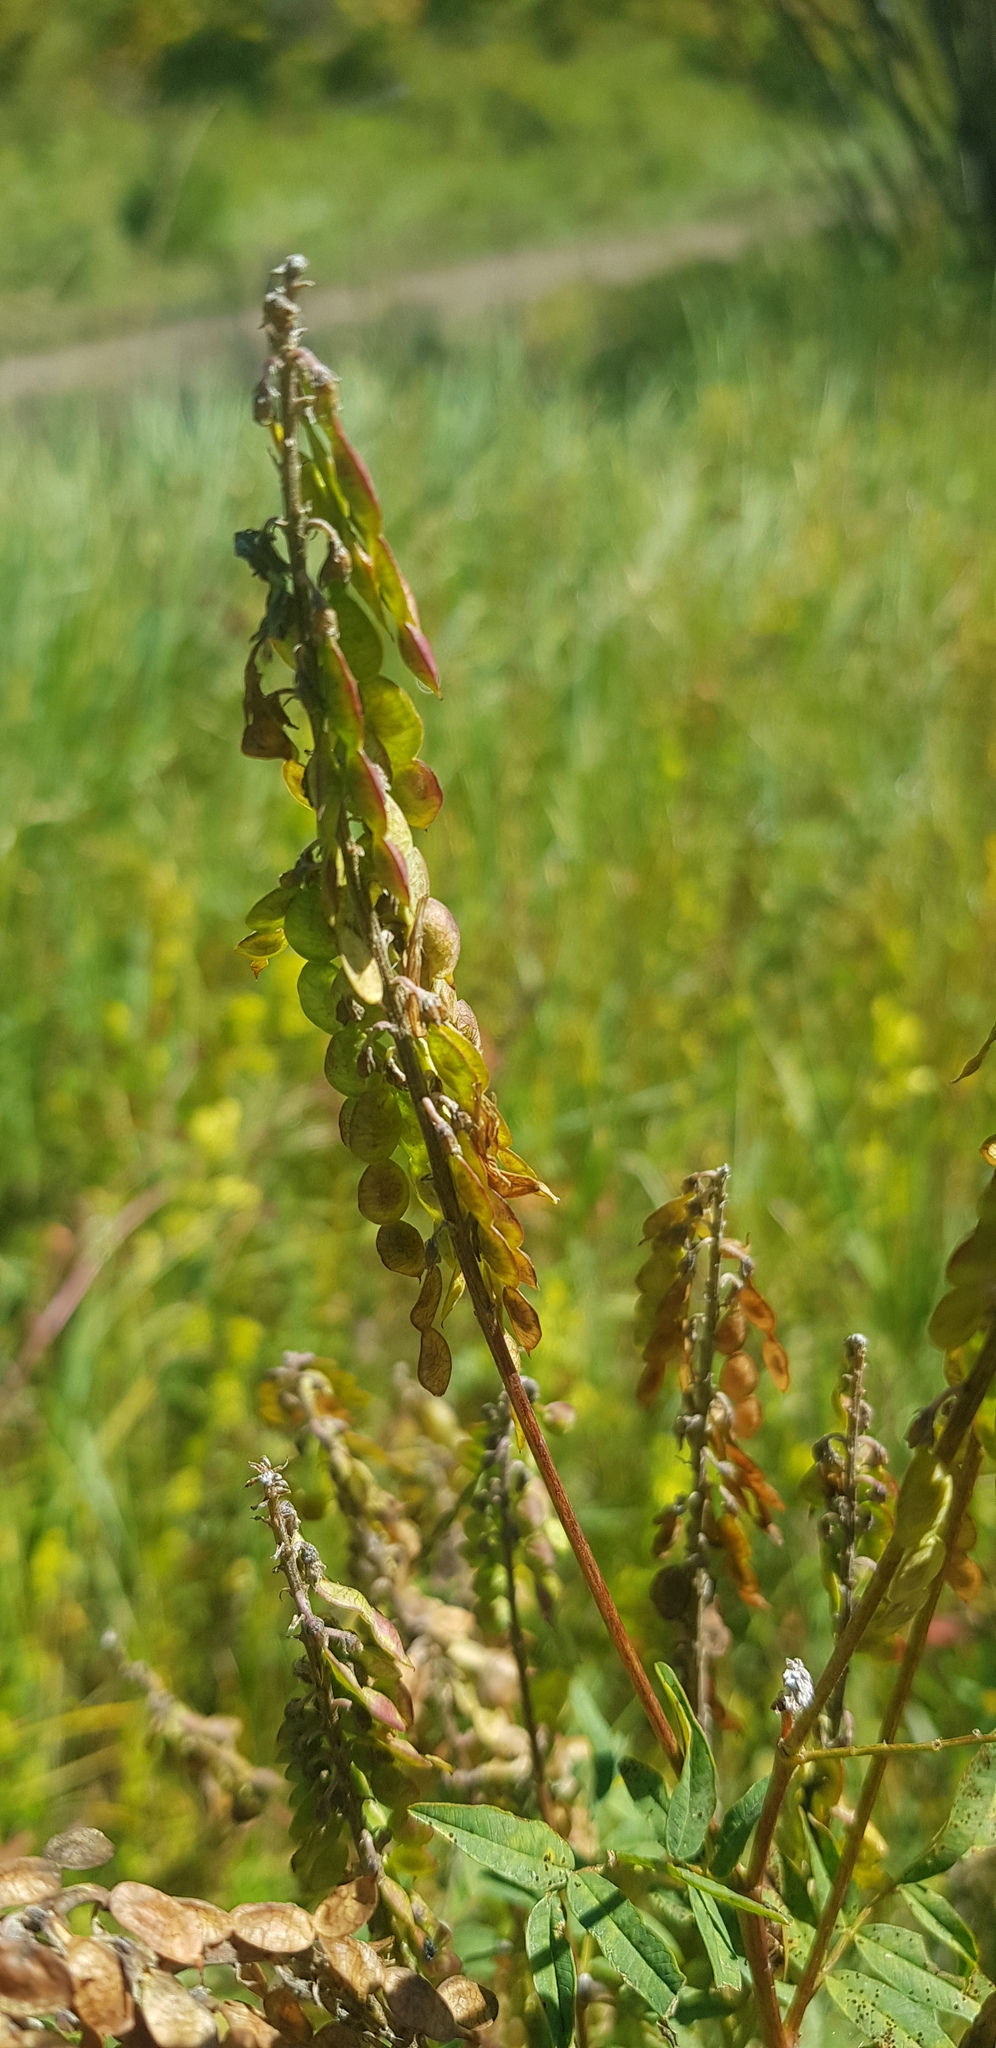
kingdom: Plantae
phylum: Tracheophyta
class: Magnoliopsida
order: Fabales
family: Fabaceae
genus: Hedysarum
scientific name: Hedysarum alpinum
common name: Alpine sweet-vetch
